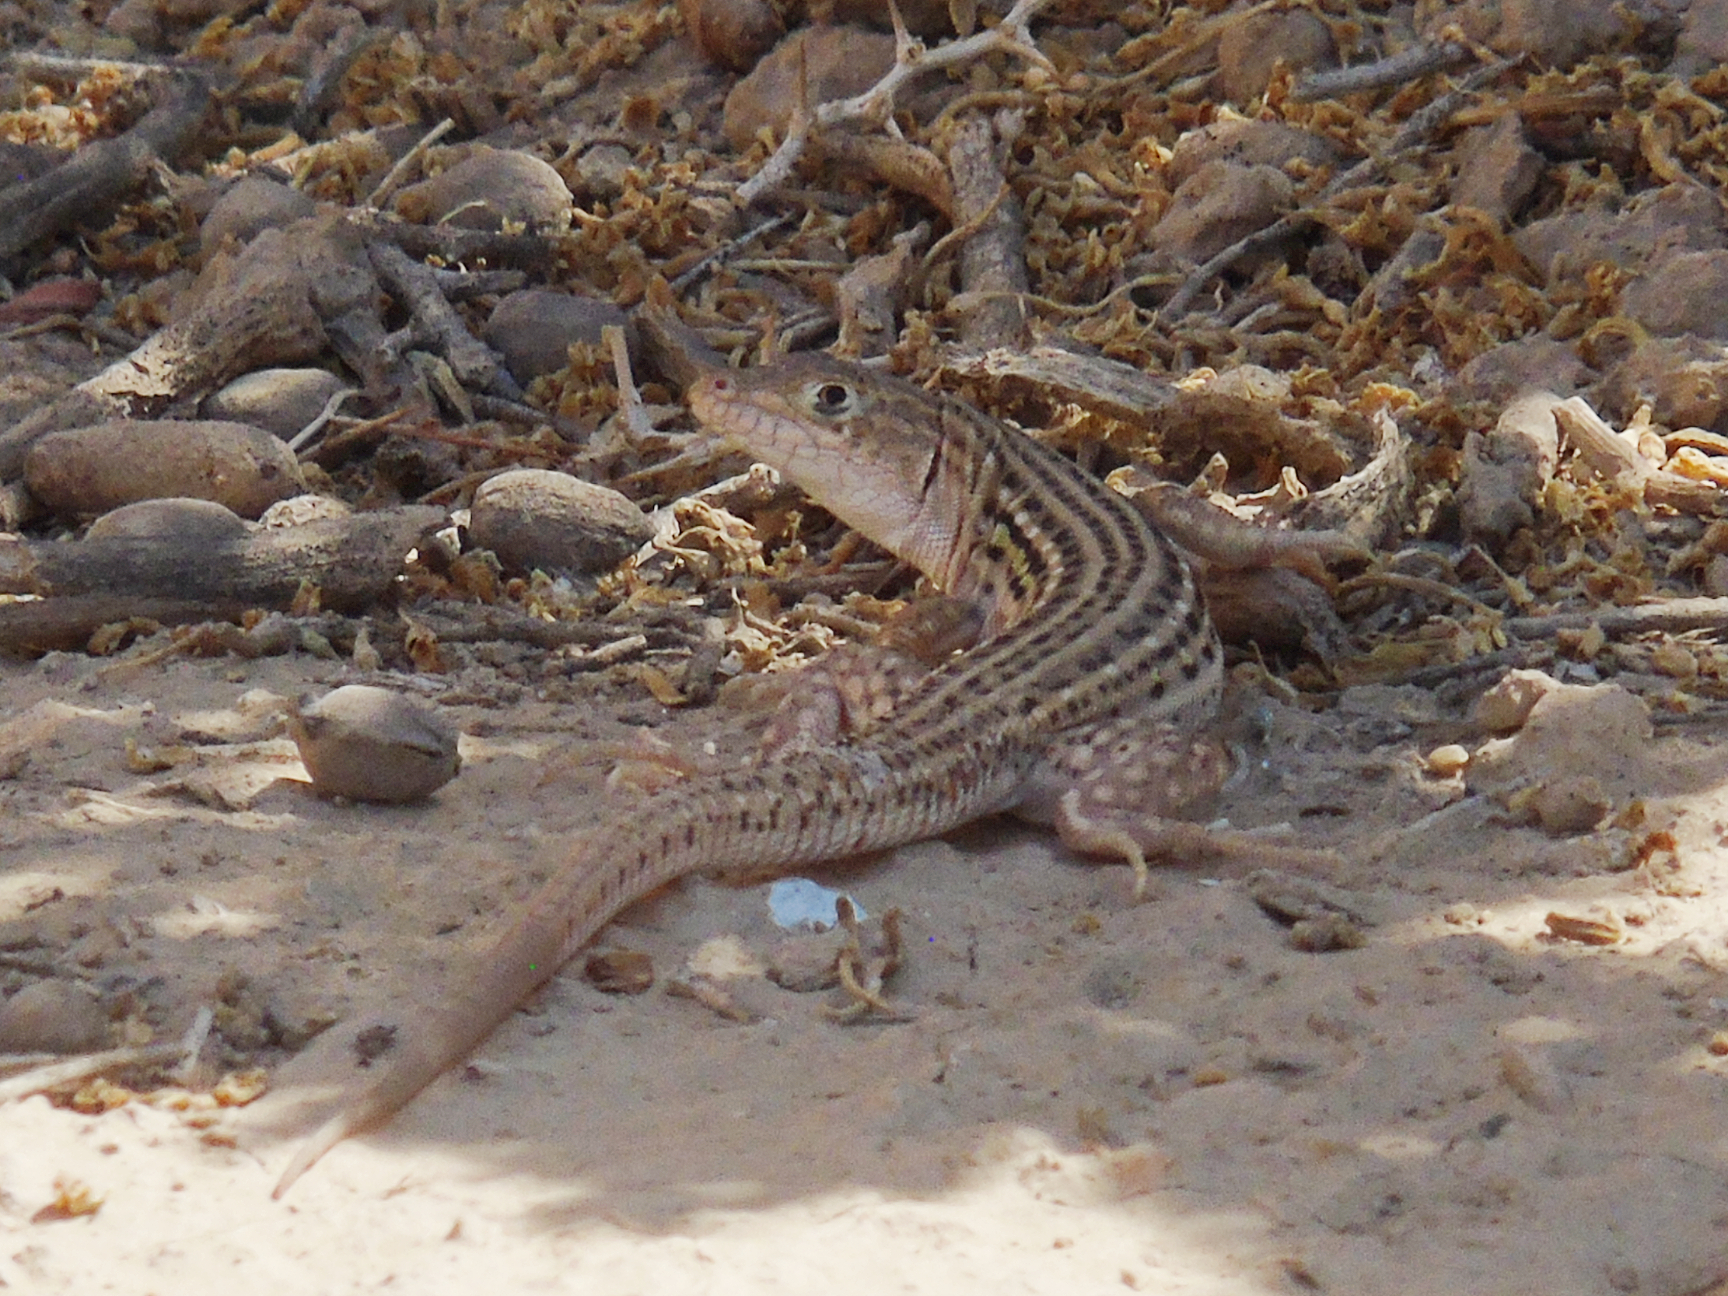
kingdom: Animalia
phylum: Chordata
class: Squamata
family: Lacertidae
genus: Eremias
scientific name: Eremias regeli
